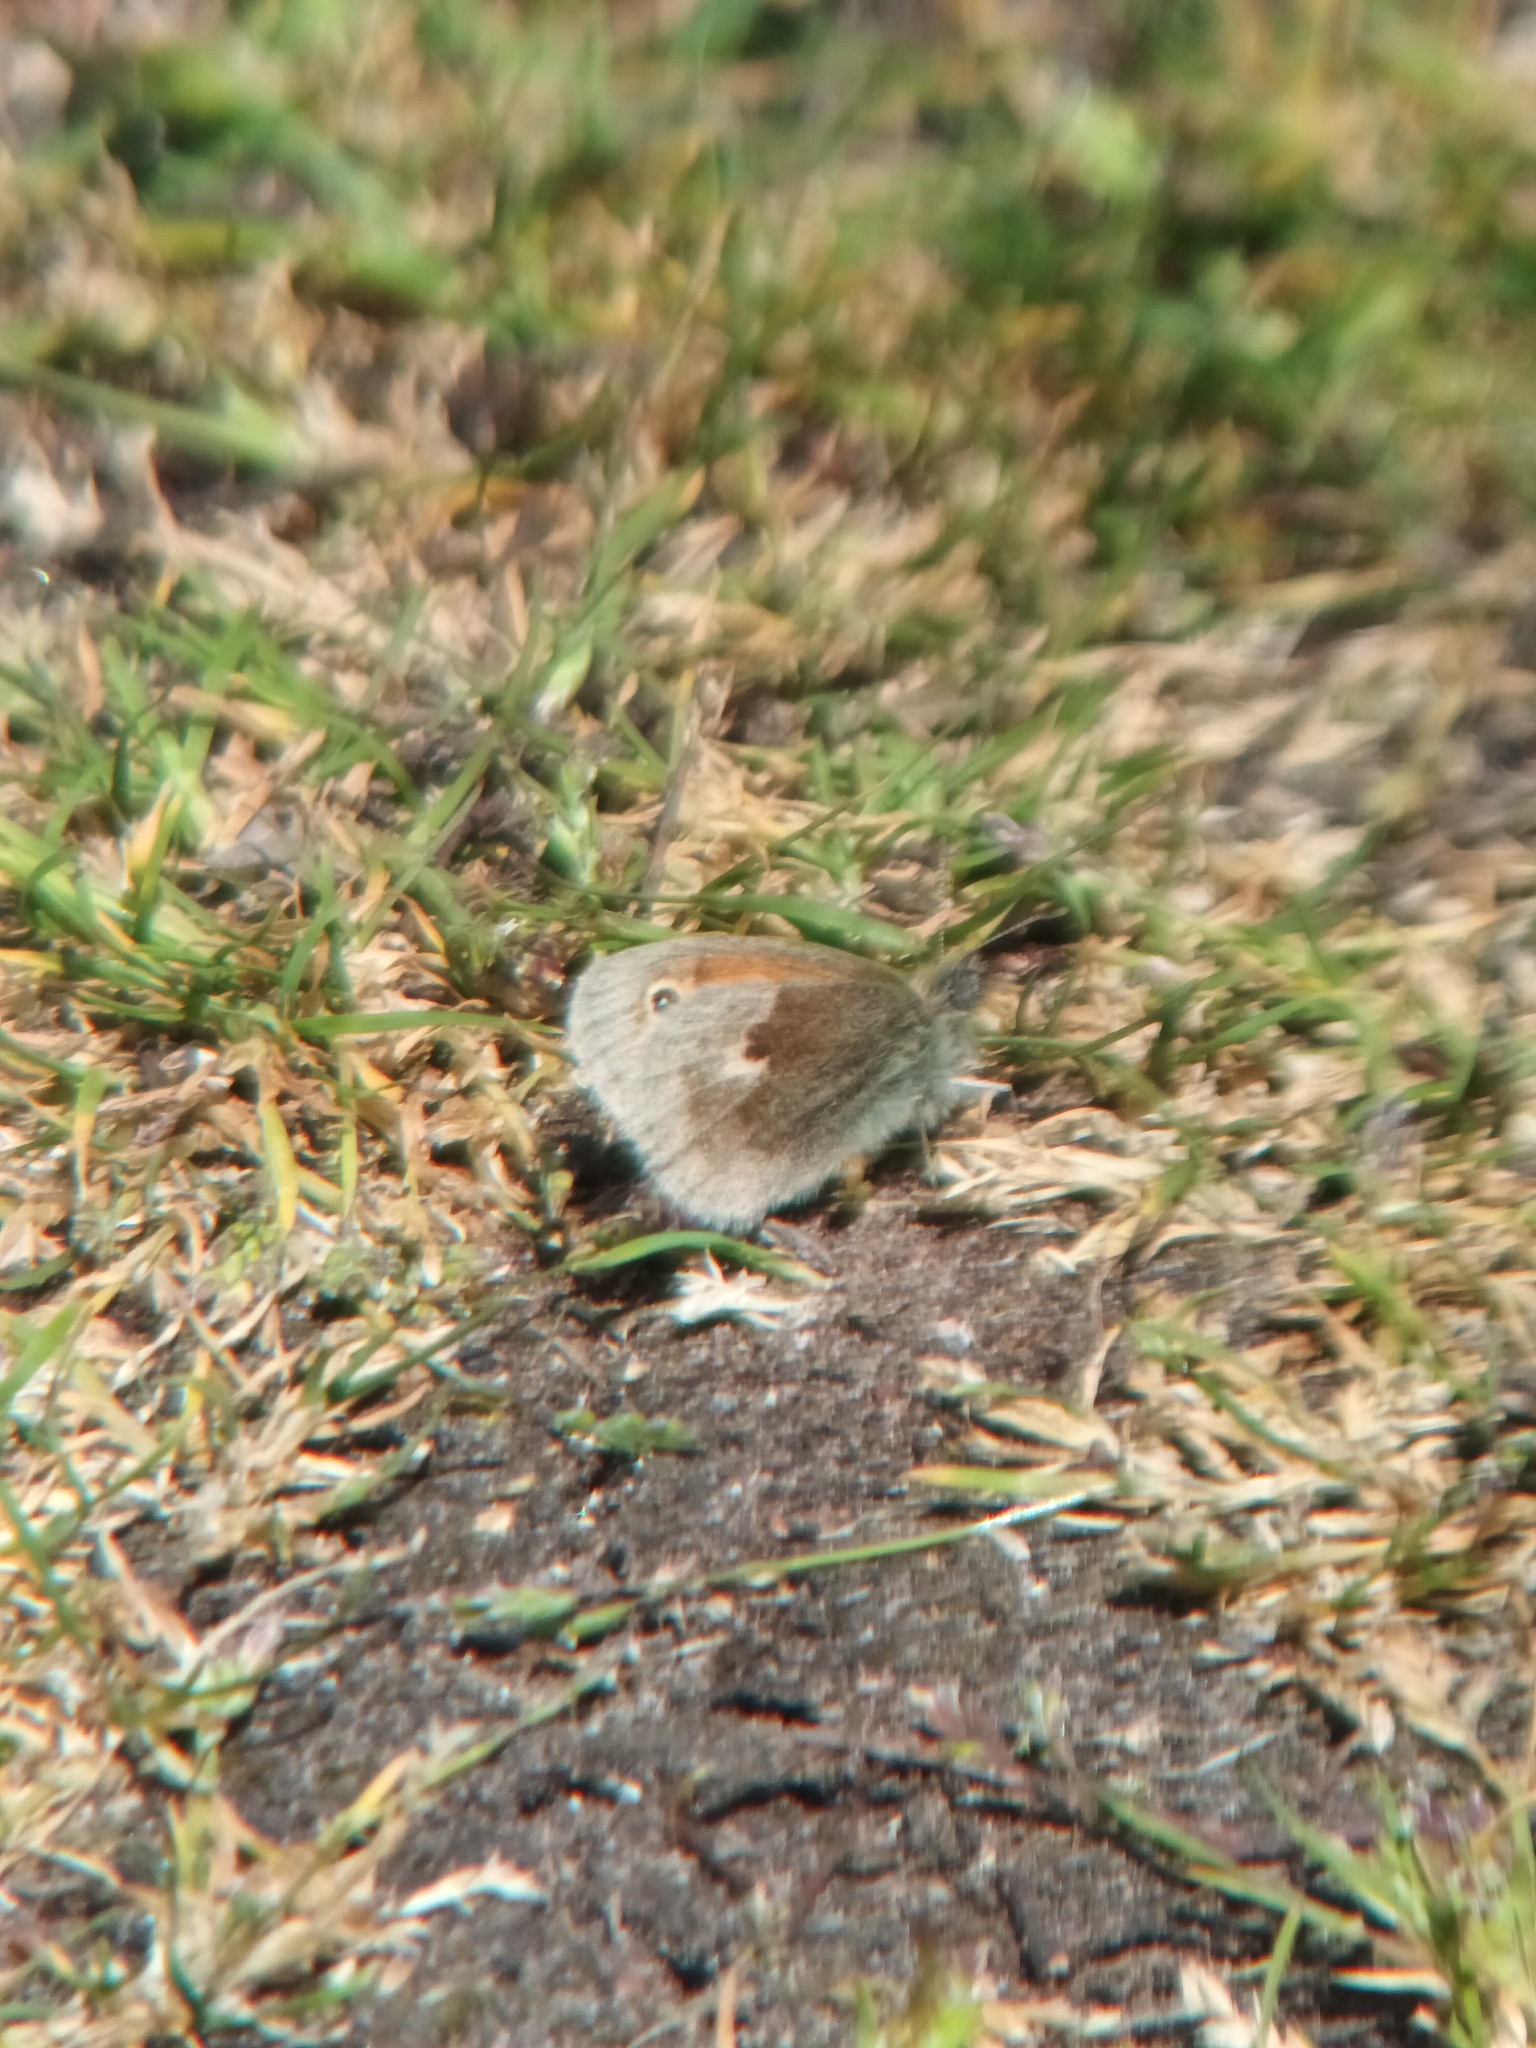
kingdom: Animalia
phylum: Arthropoda
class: Insecta
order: Lepidoptera
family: Nymphalidae
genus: Coenonympha
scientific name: Coenonympha pamphilus
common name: Small heath
